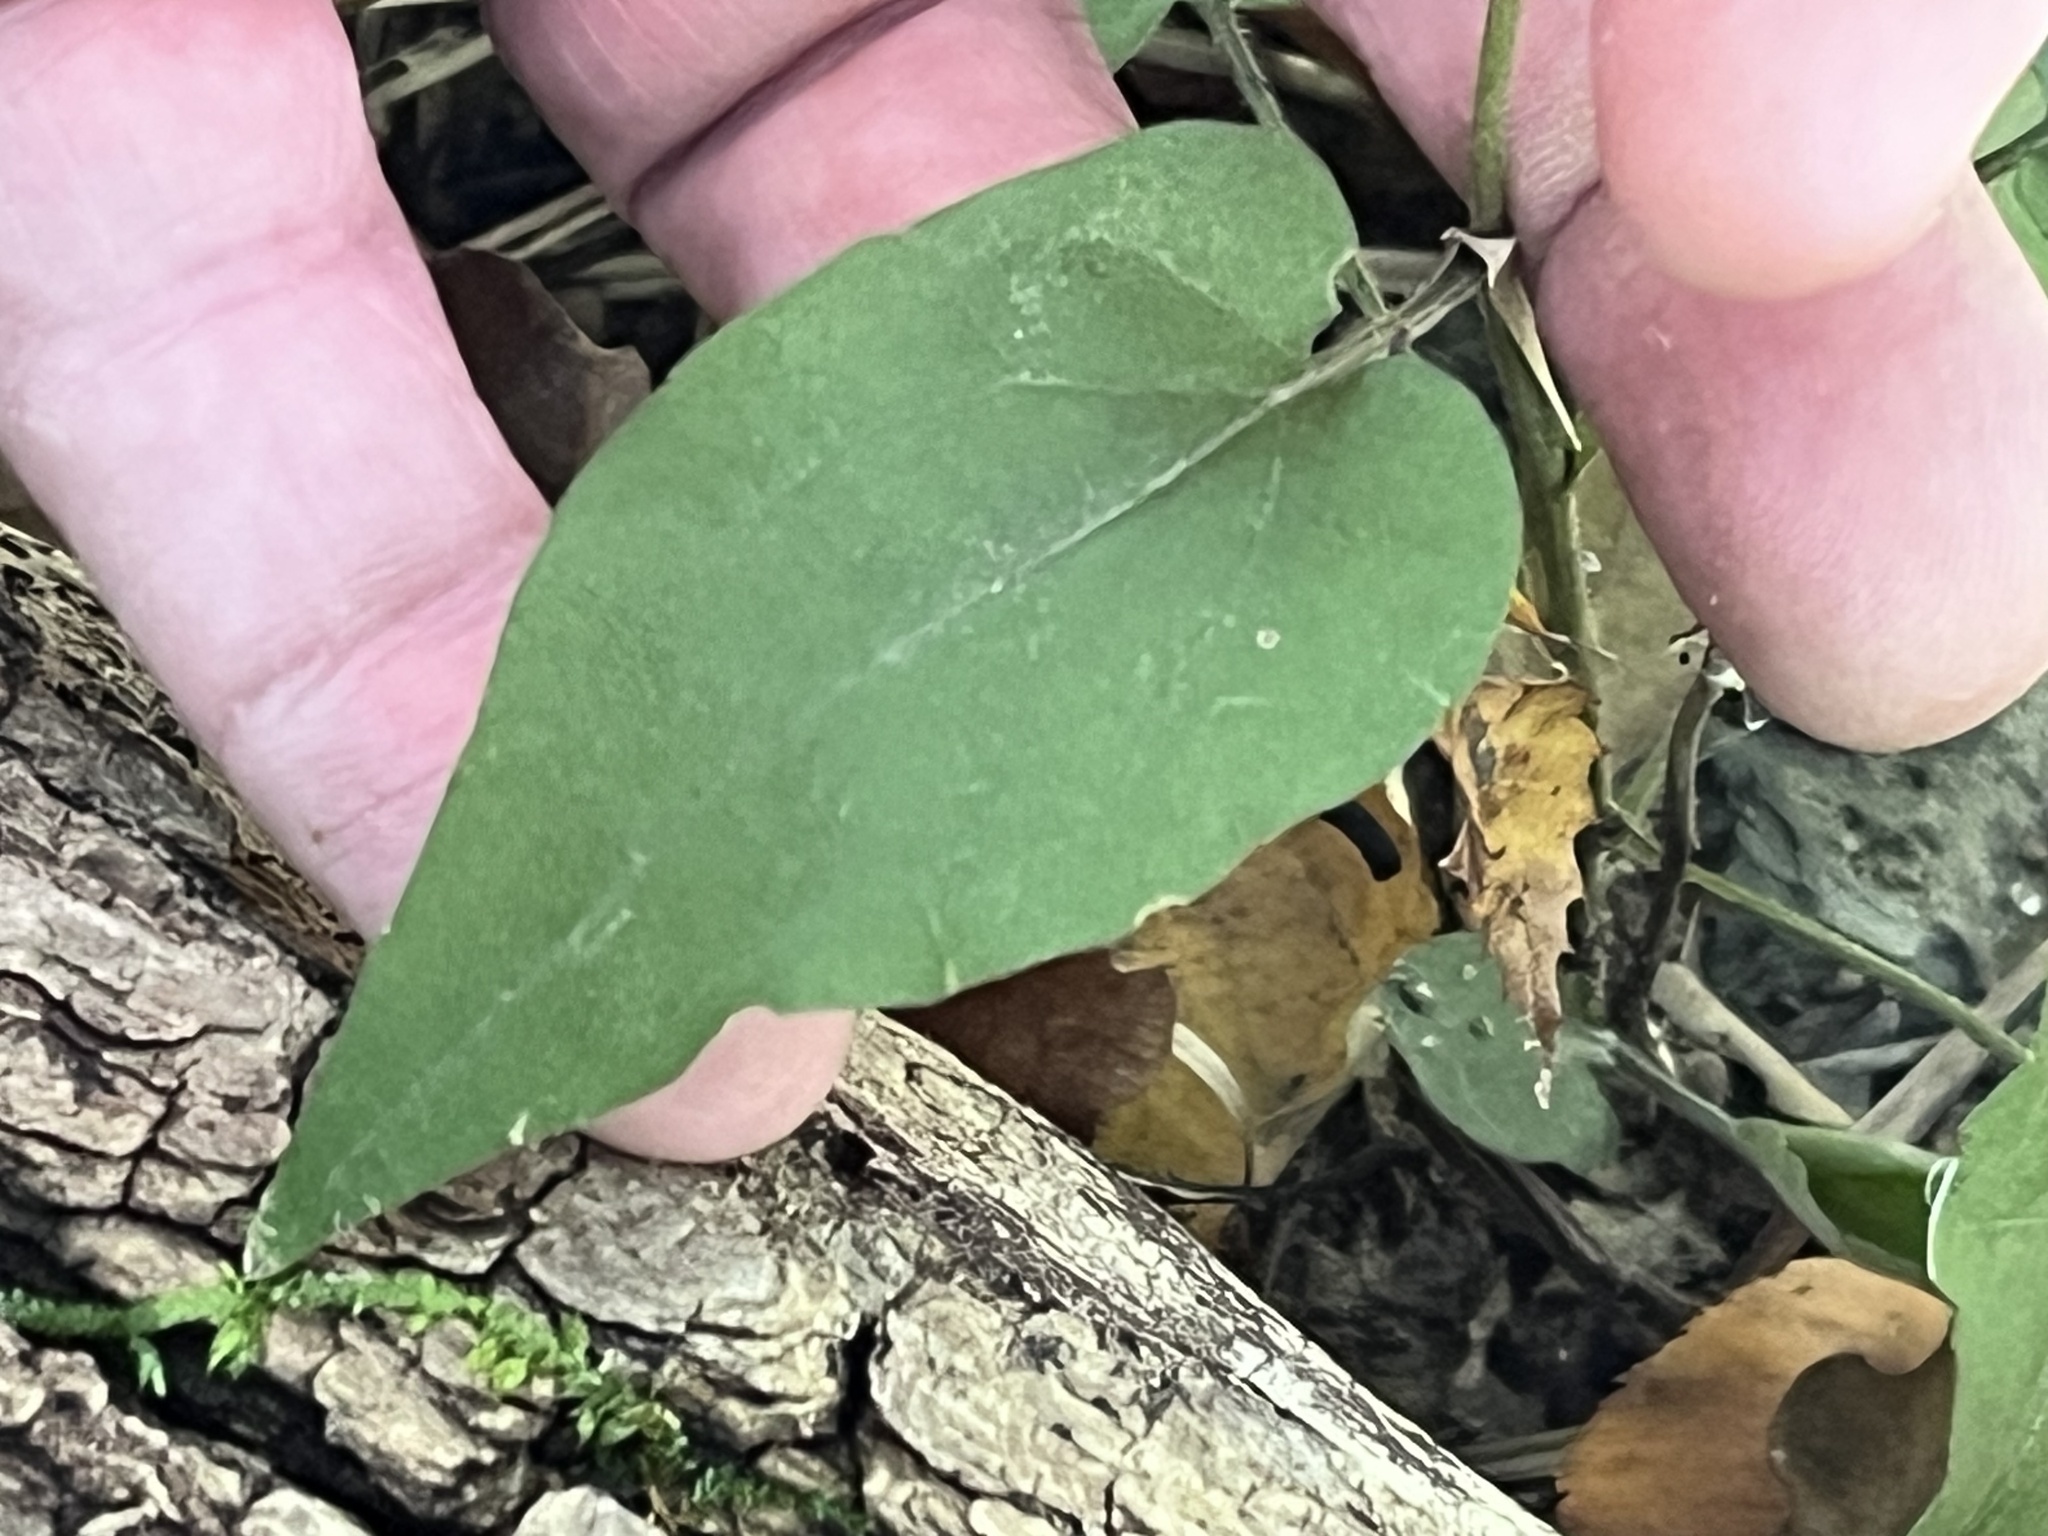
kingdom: Plantae
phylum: Tracheophyta
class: Magnoliopsida
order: Asterales
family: Asteraceae
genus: Symphyotrichum
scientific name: Symphyotrichum shortii
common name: Short's aster
